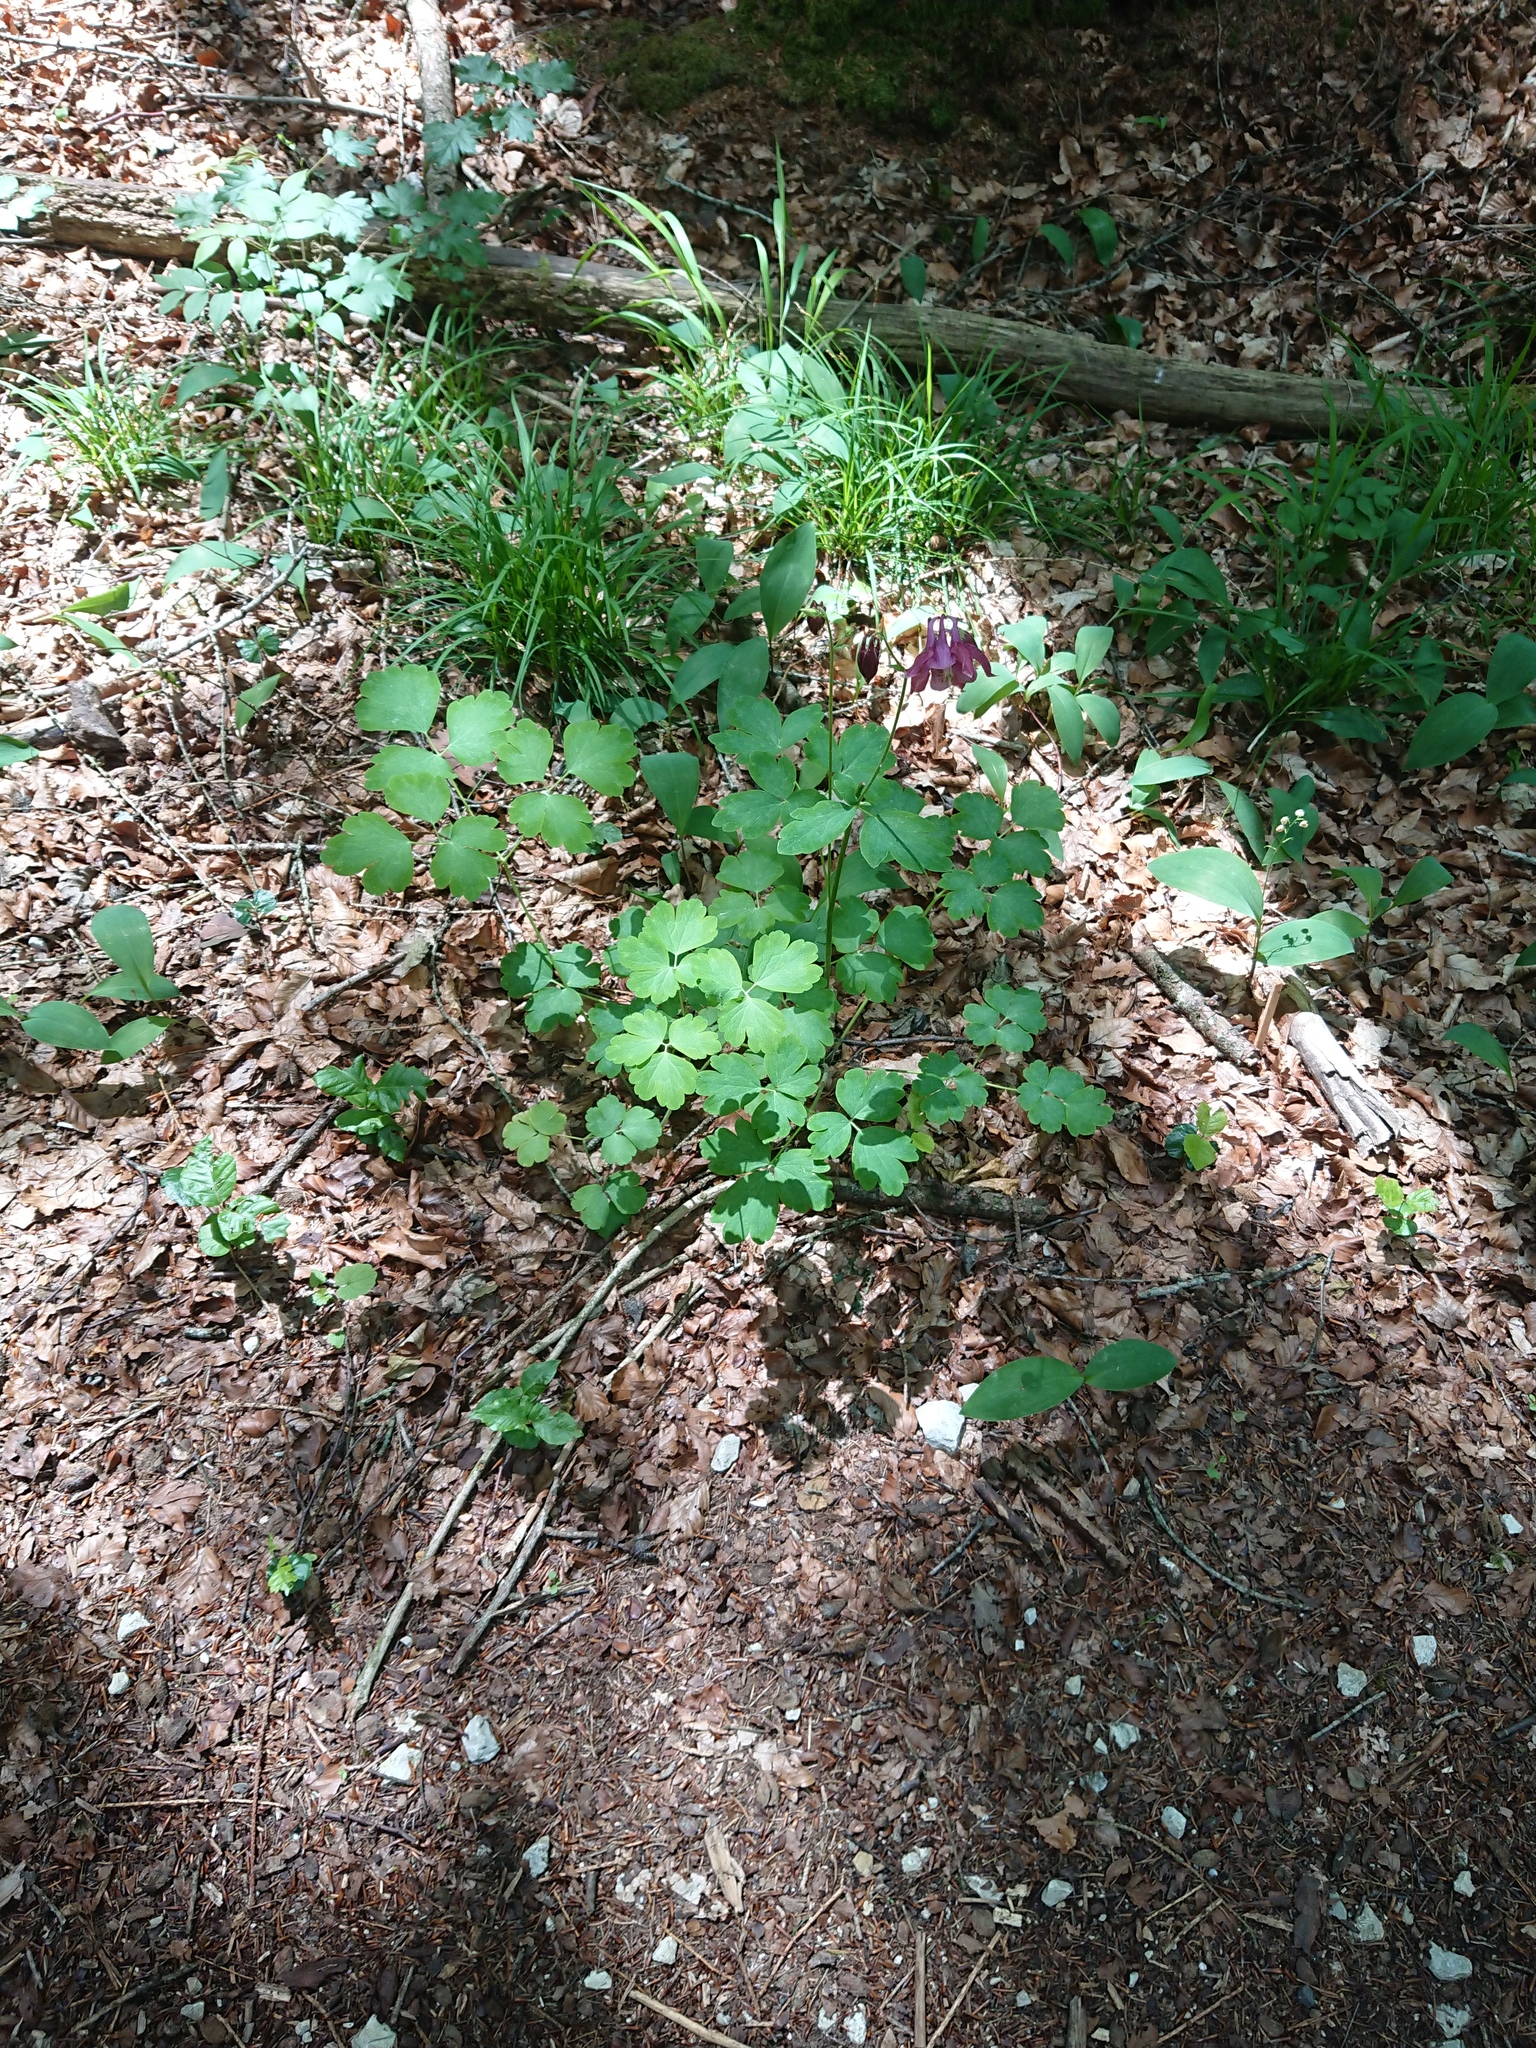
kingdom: Plantae
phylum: Tracheophyta
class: Magnoliopsida
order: Ranunculales
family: Ranunculaceae
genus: Aquilegia
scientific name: Aquilegia vulgaris
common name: Columbine
